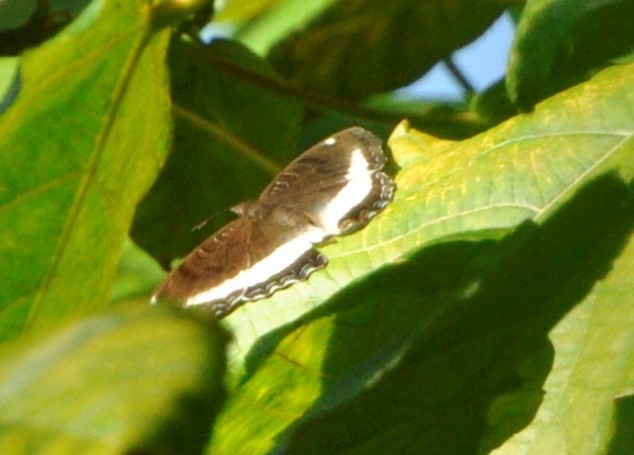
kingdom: Animalia
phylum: Arthropoda
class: Insecta
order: Lepidoptera
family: Nymphalidae
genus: Eurytela
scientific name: Eurytela hiarbas
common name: Pied piper
